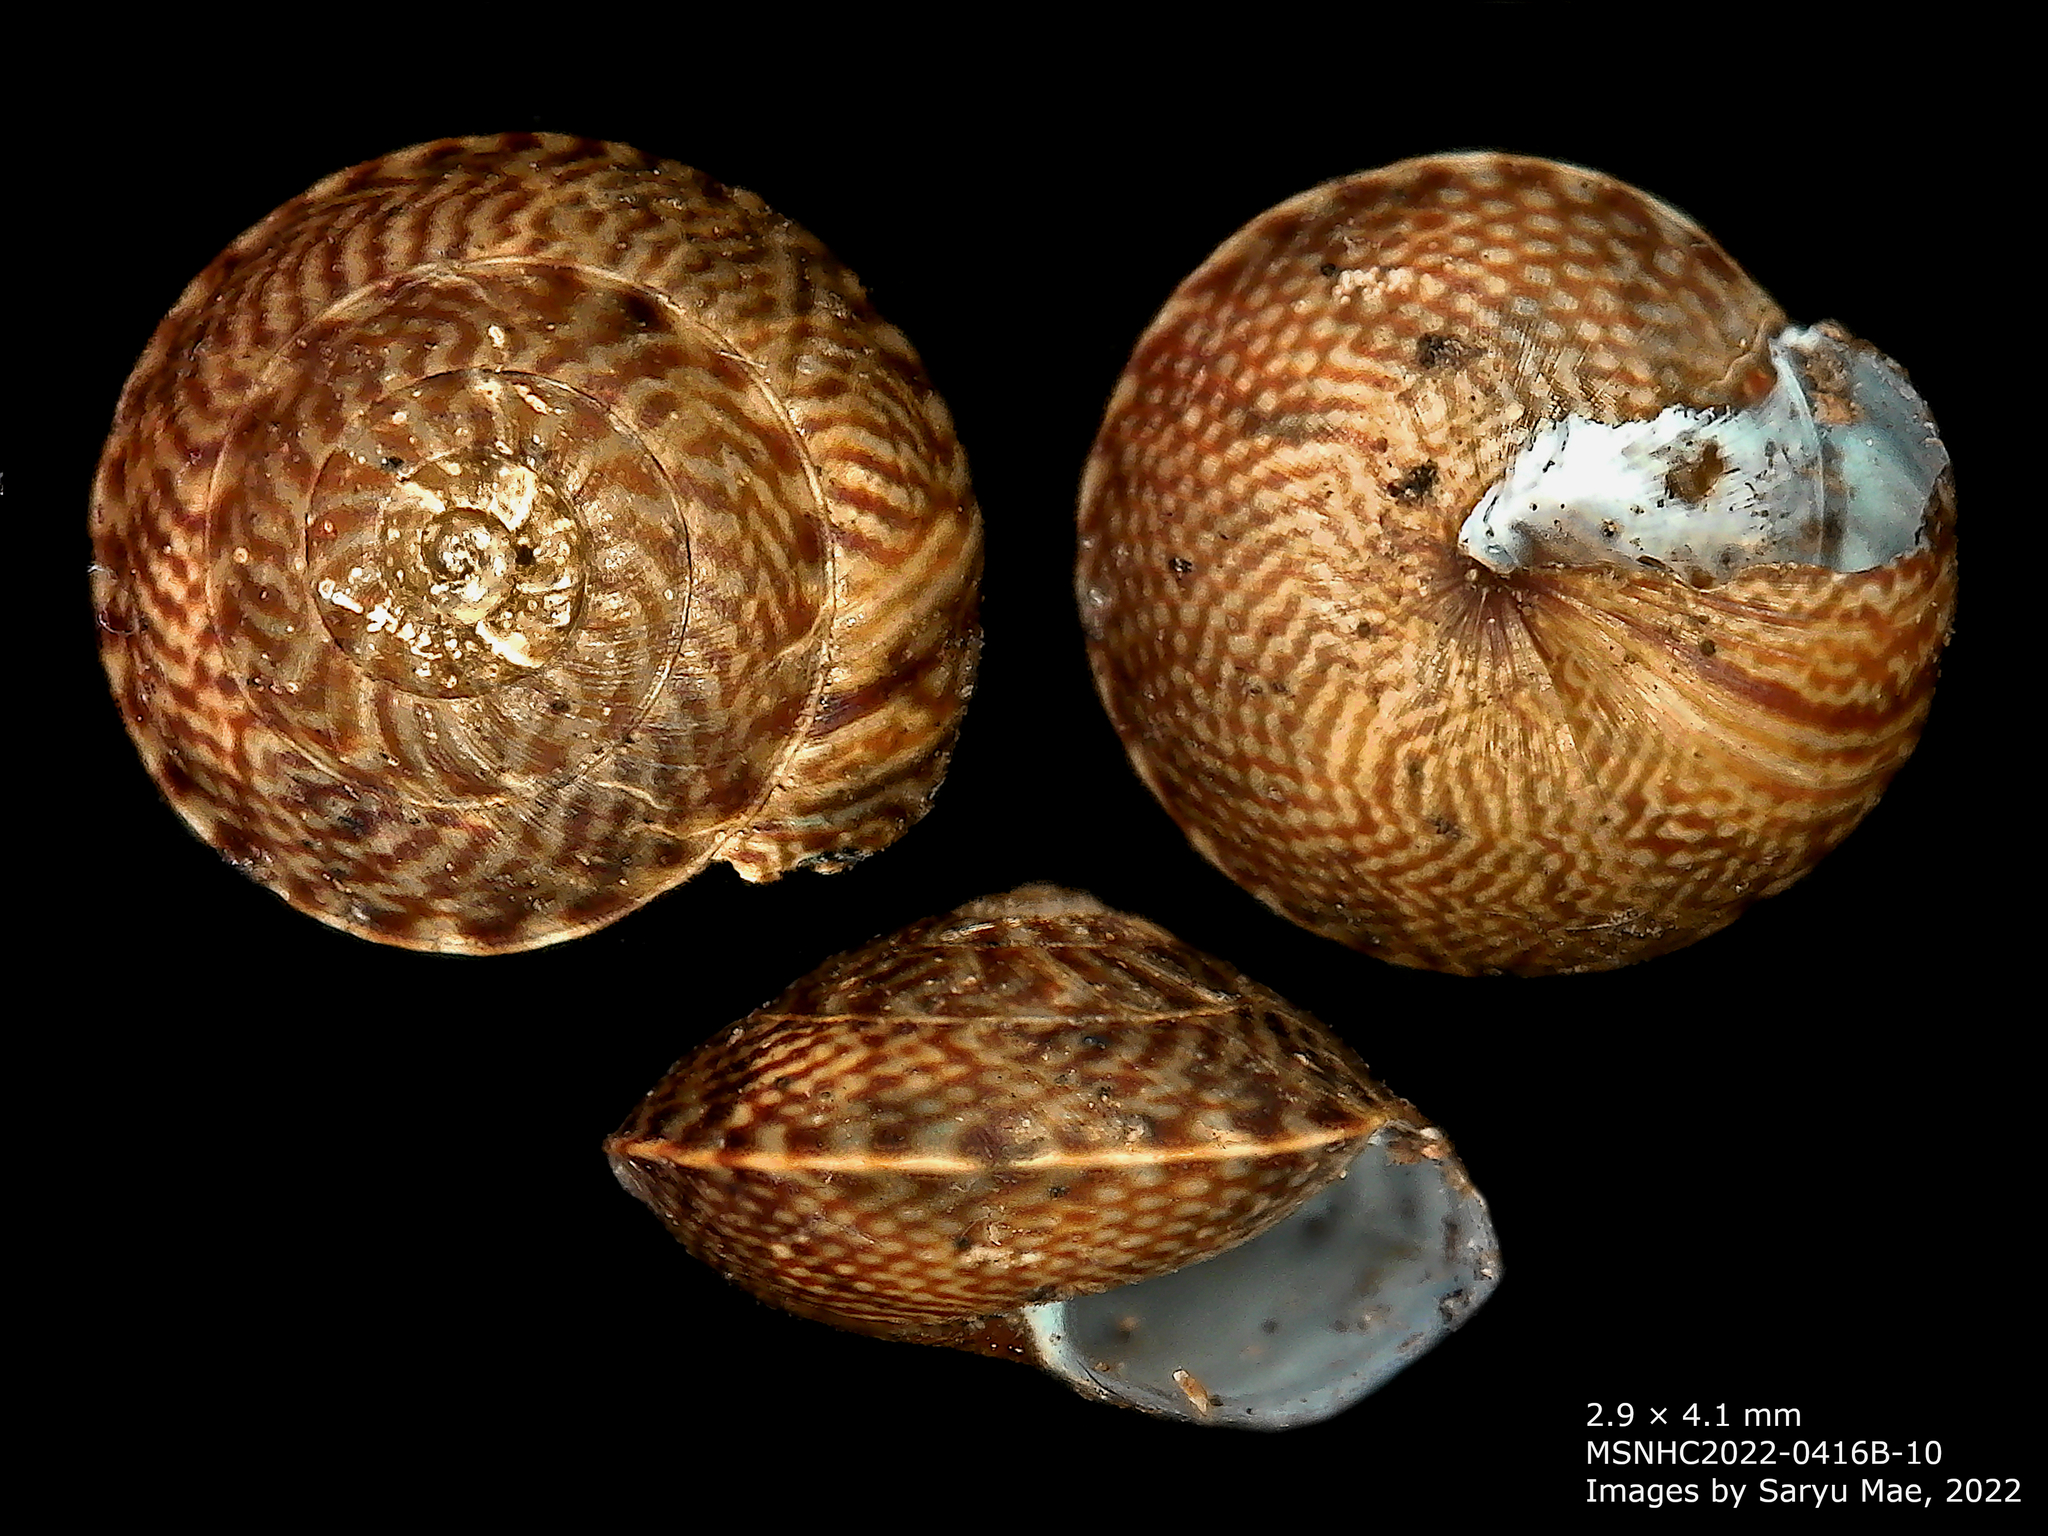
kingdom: Animalia
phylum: Mollusca
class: Gastropoda
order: Stylommatophora
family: Punctidae
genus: Laoma
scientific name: Laoma mariae
